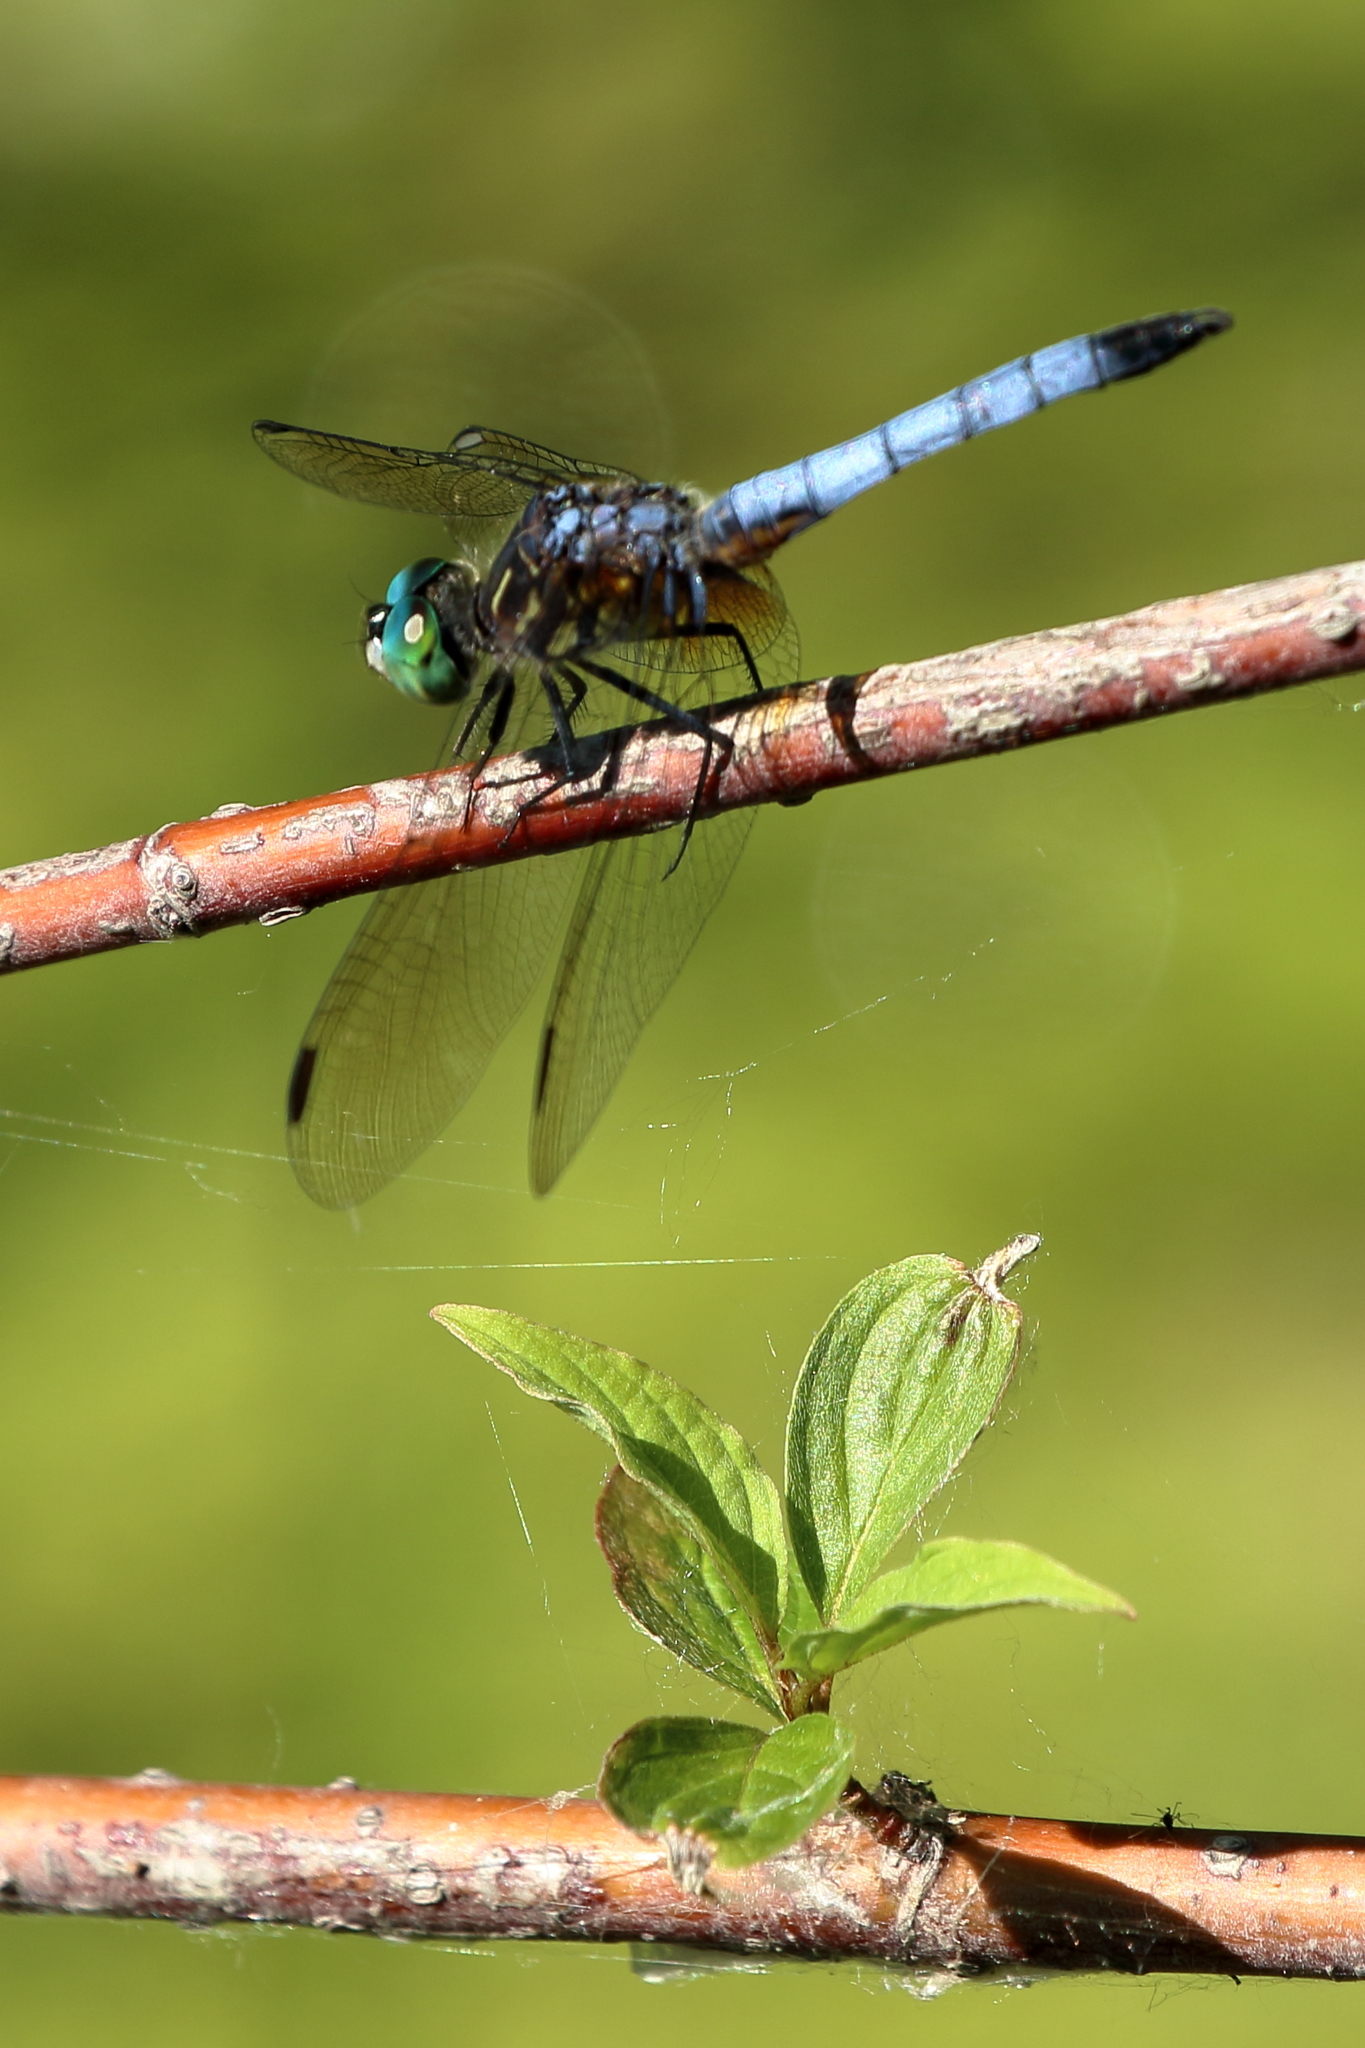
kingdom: Animalia
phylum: Arthropoda
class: Insecta
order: Odonata
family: Libellulidae
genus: Pachydiplax
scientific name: Pachydiplax longipennis
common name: Blue dasher
